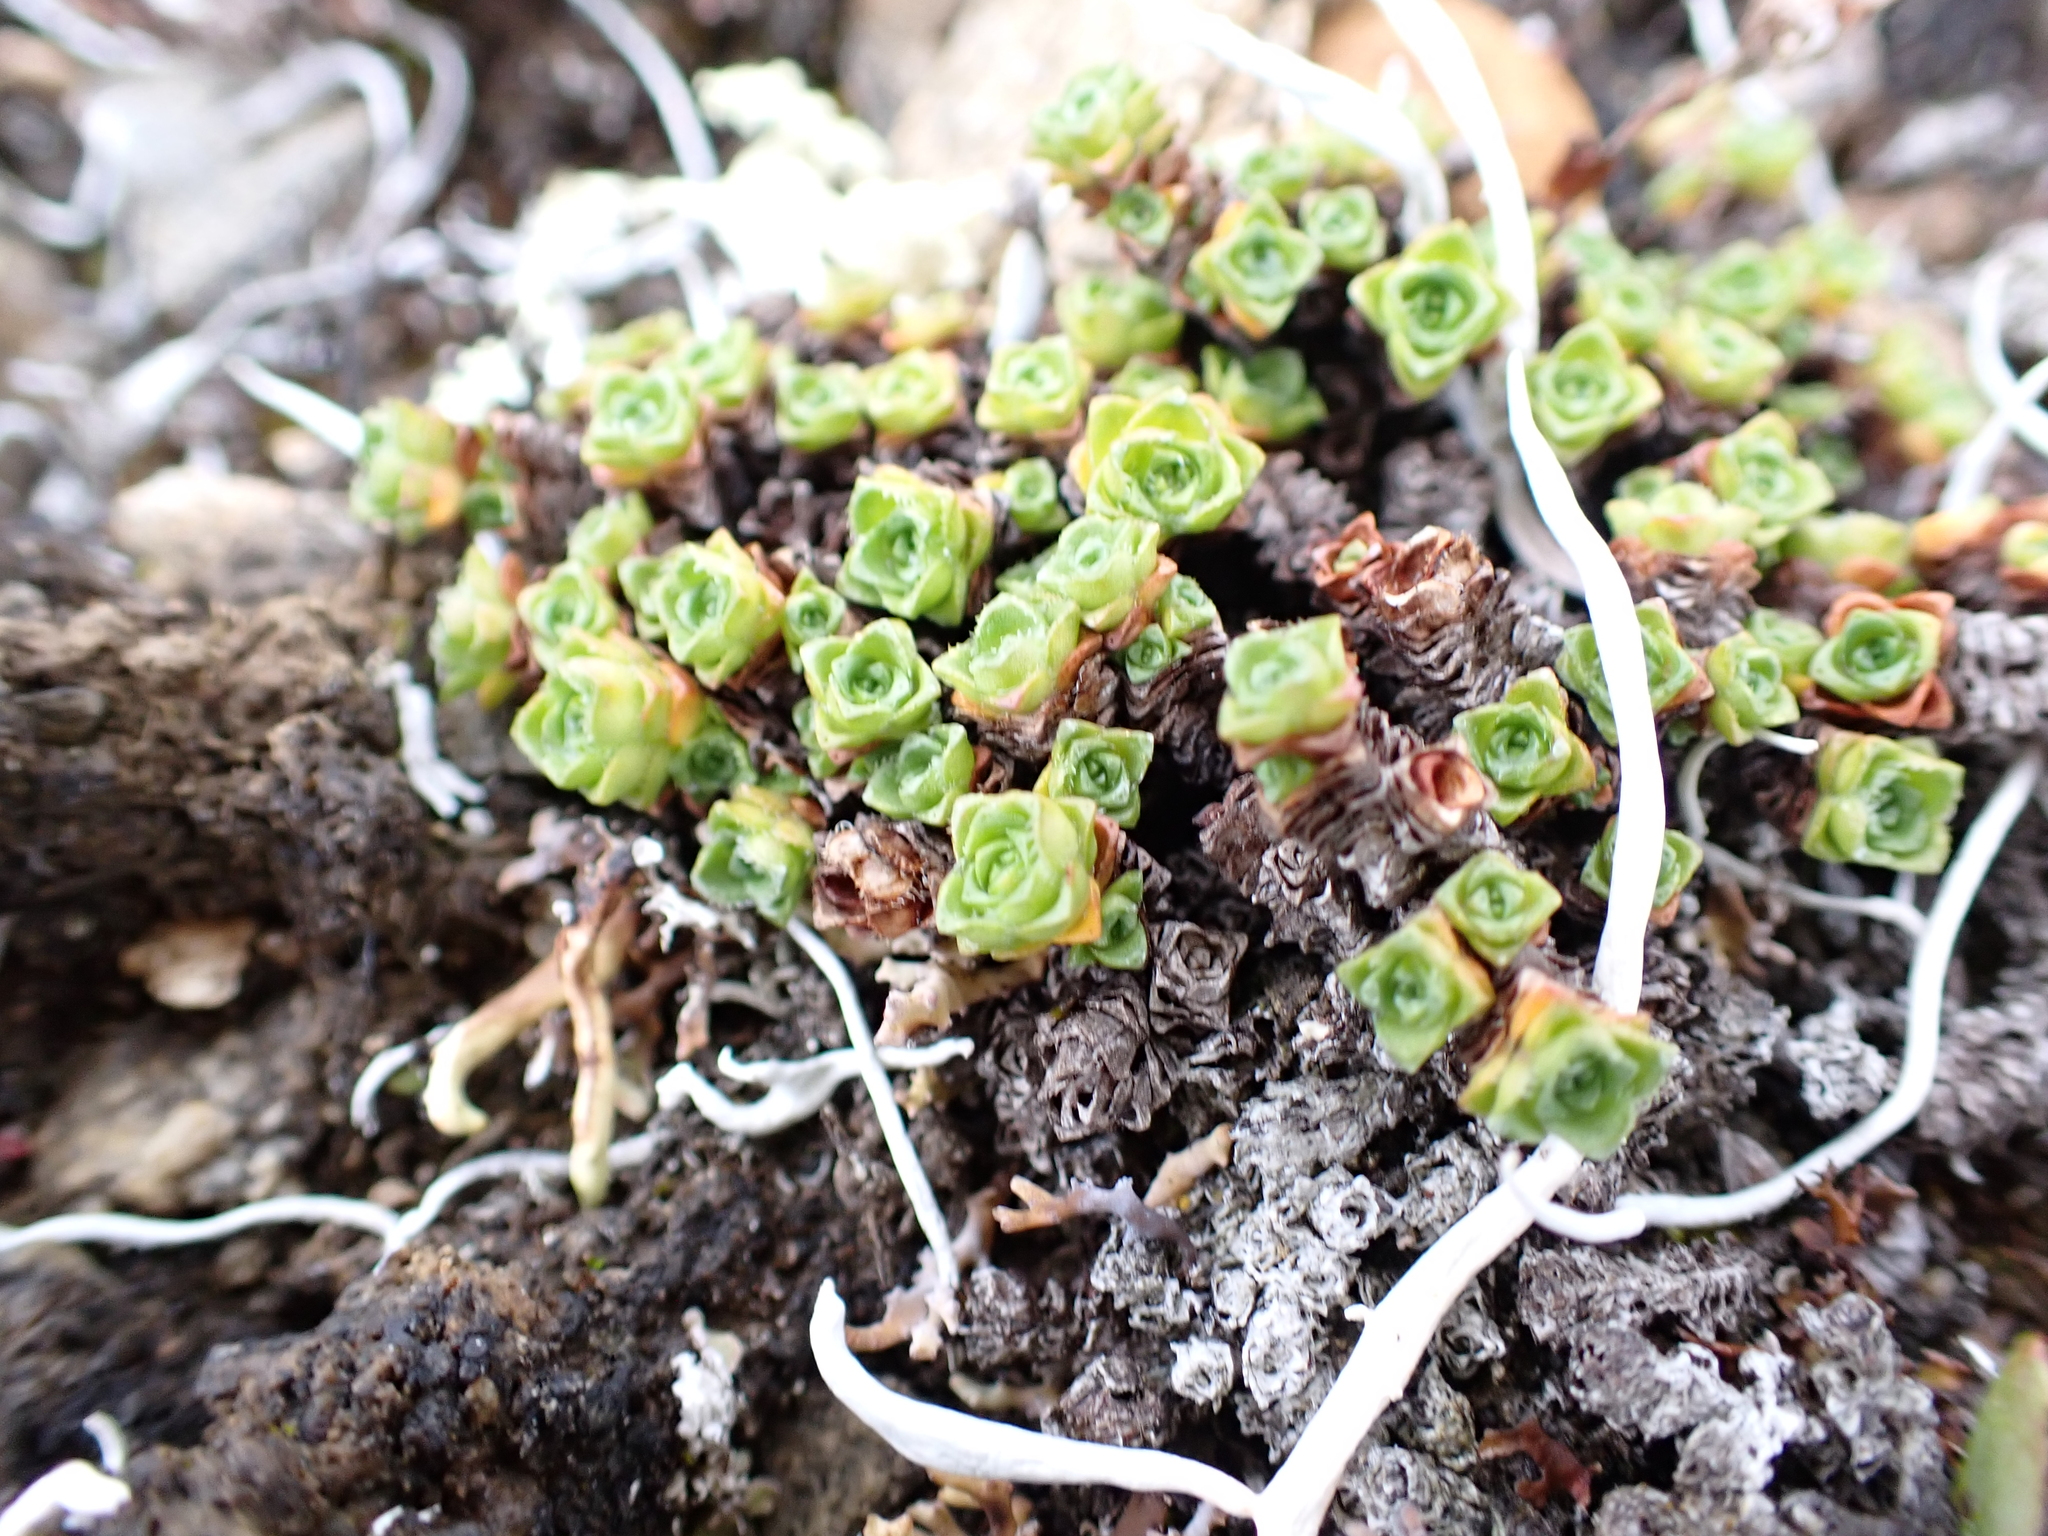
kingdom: Plantae
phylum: Tracheophyta
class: Magnoliopsida
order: Saxifragales
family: Saxifragaceae
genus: Saxifraga
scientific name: Saxifraga oppositifolia
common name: Purple saxifrage
